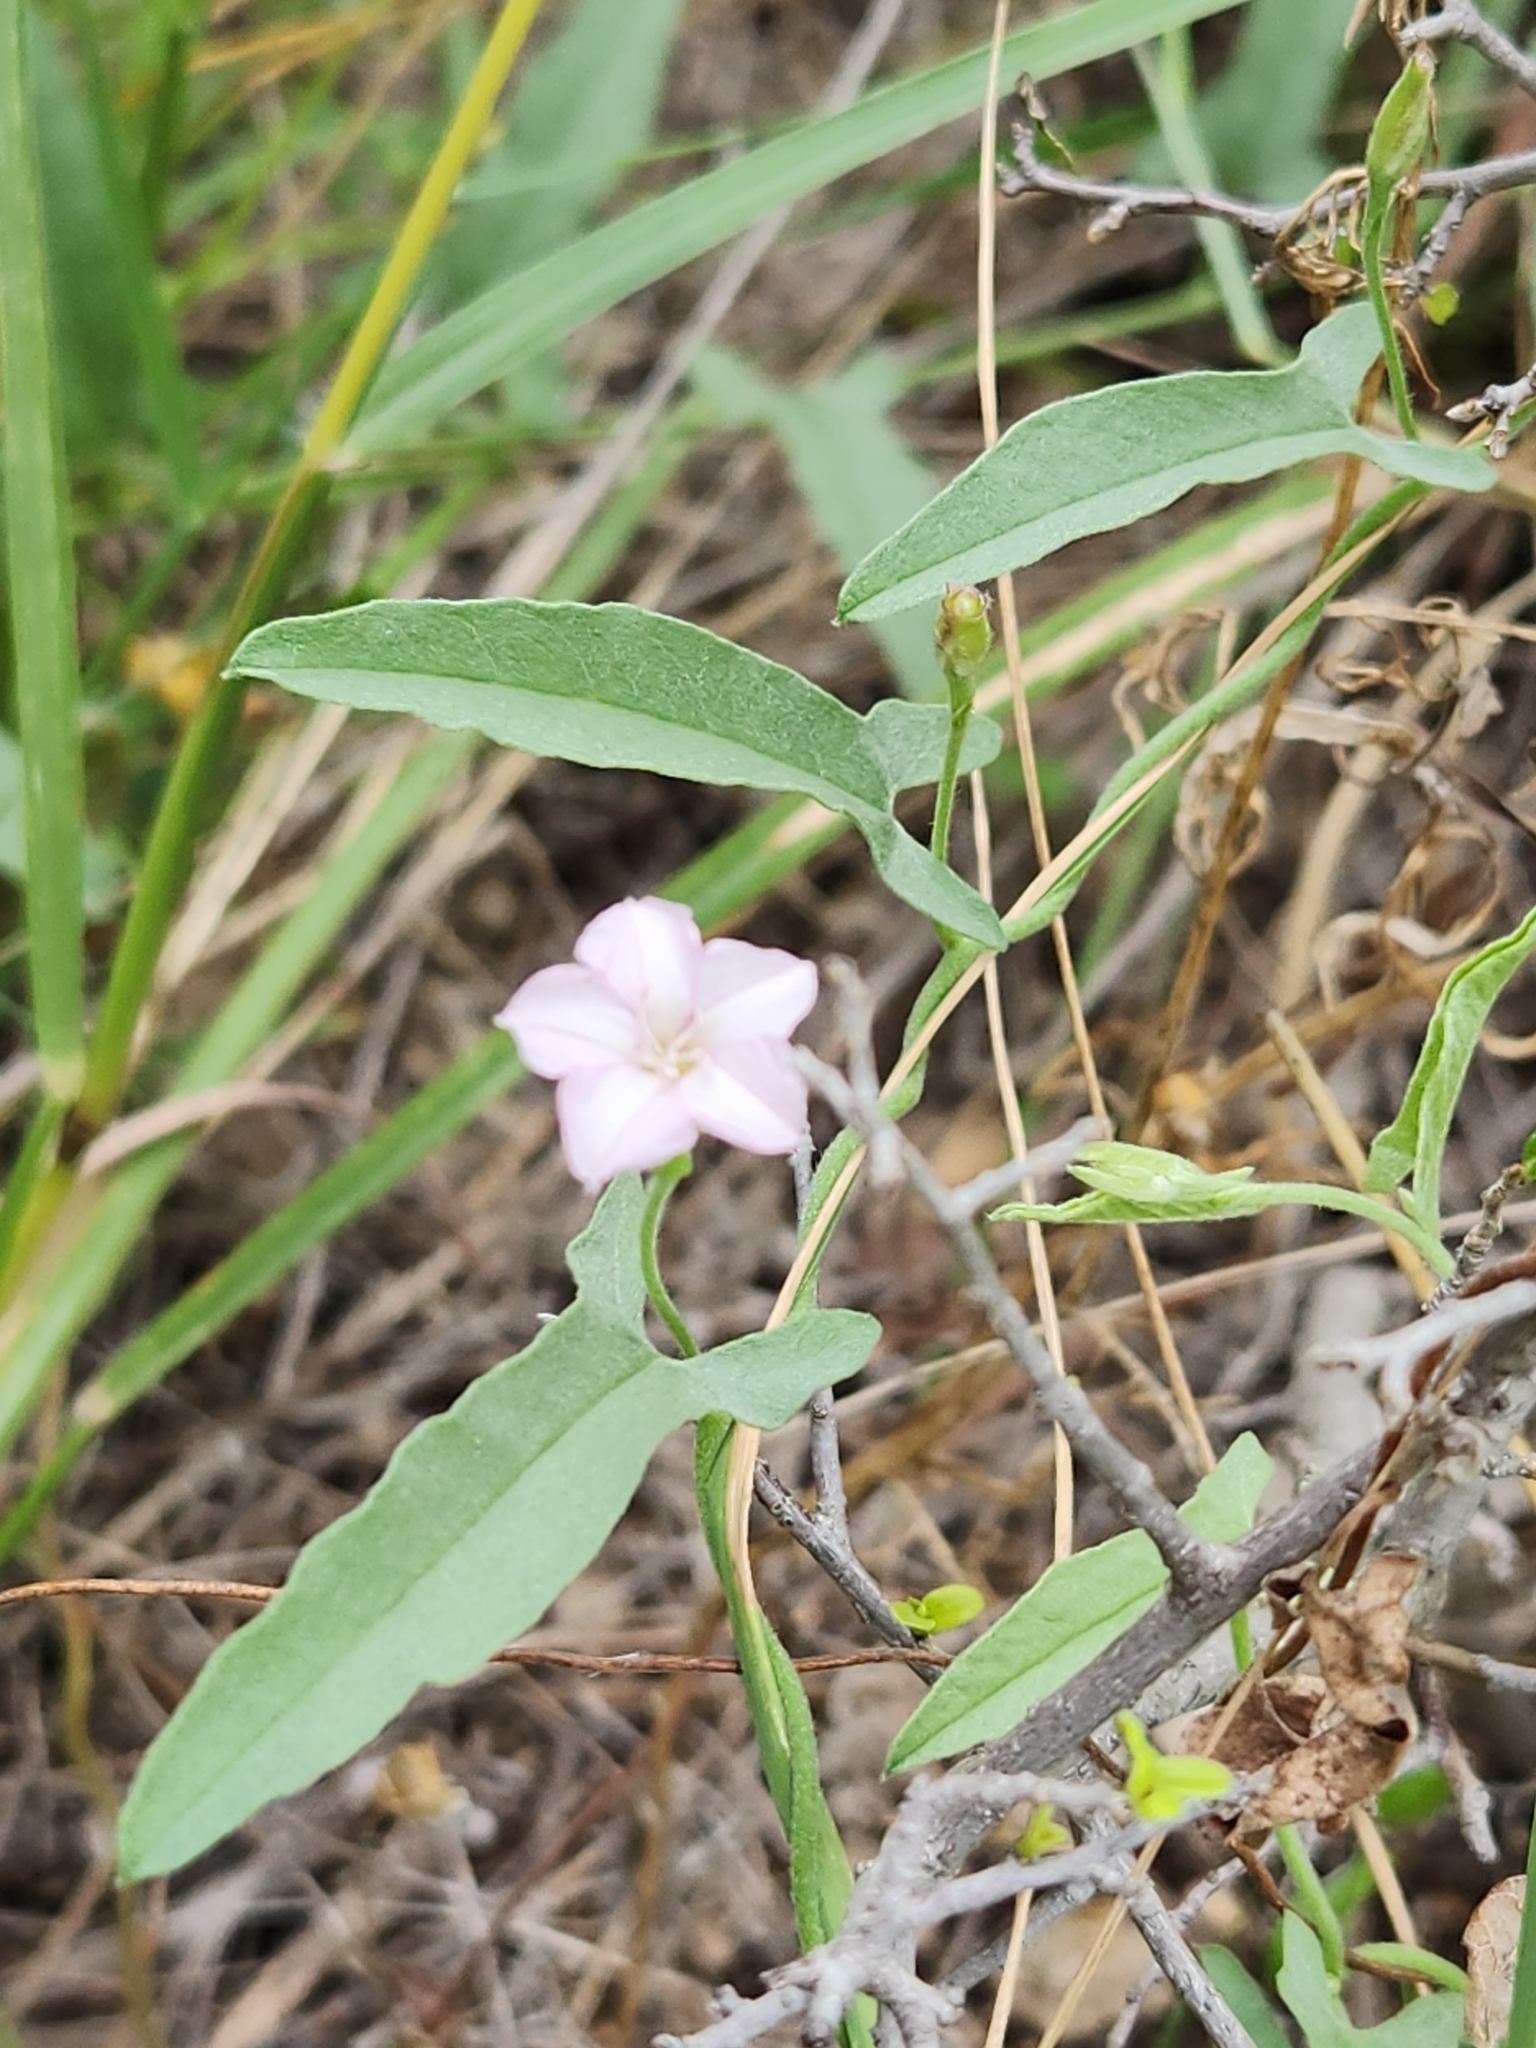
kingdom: Plantae
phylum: Tracheophyta
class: Magnoliopsida
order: Solanales
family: Convolvulaceae
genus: Convolvulus
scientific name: Convolvulus equitans
